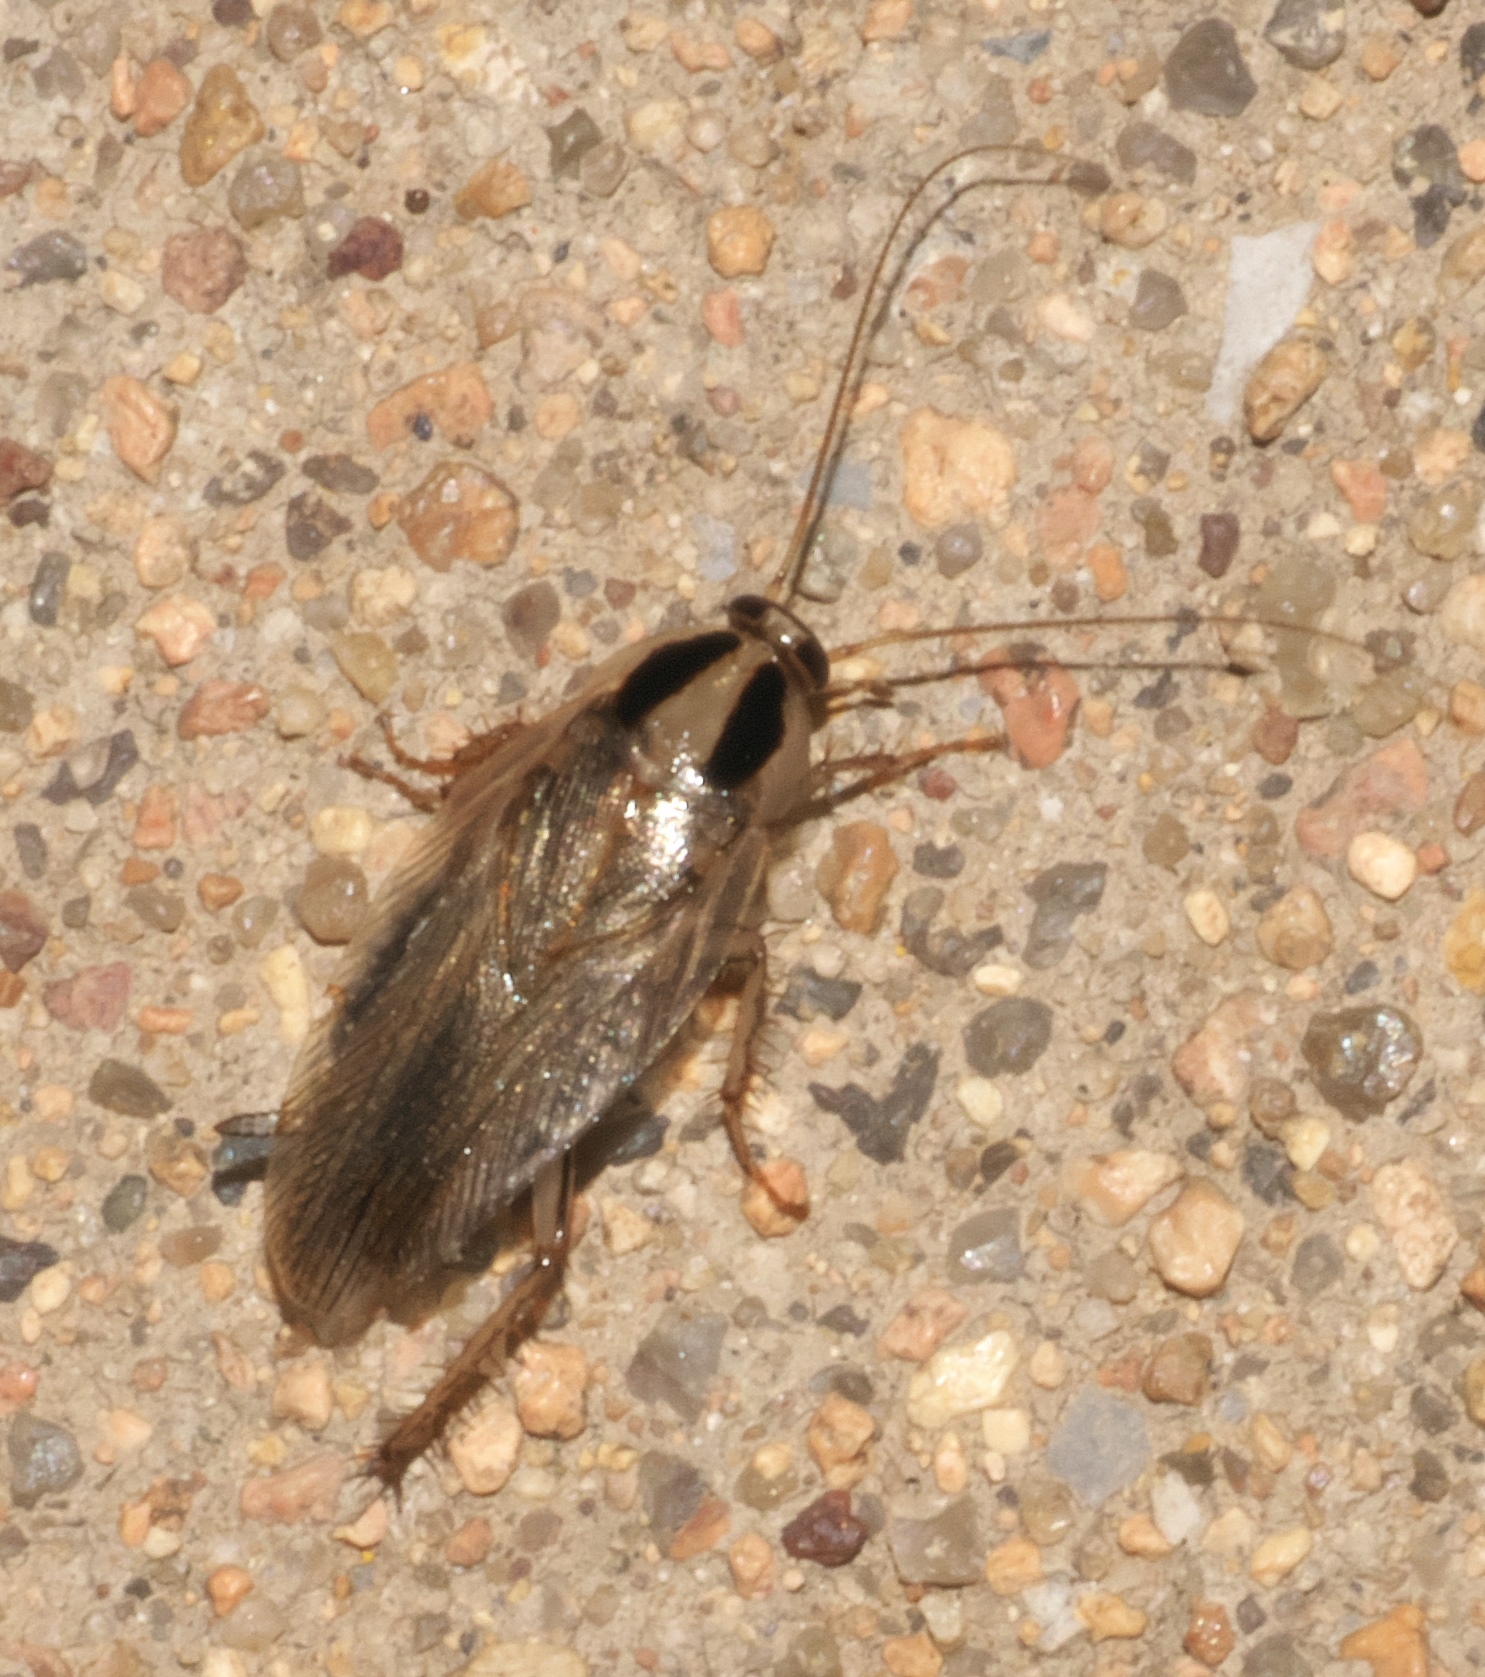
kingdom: Animalia
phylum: Arthropoda
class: Insecta
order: Blattodea
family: Ectobiidae
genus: Blattella
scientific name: Blattella vaga
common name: Field cockroach
